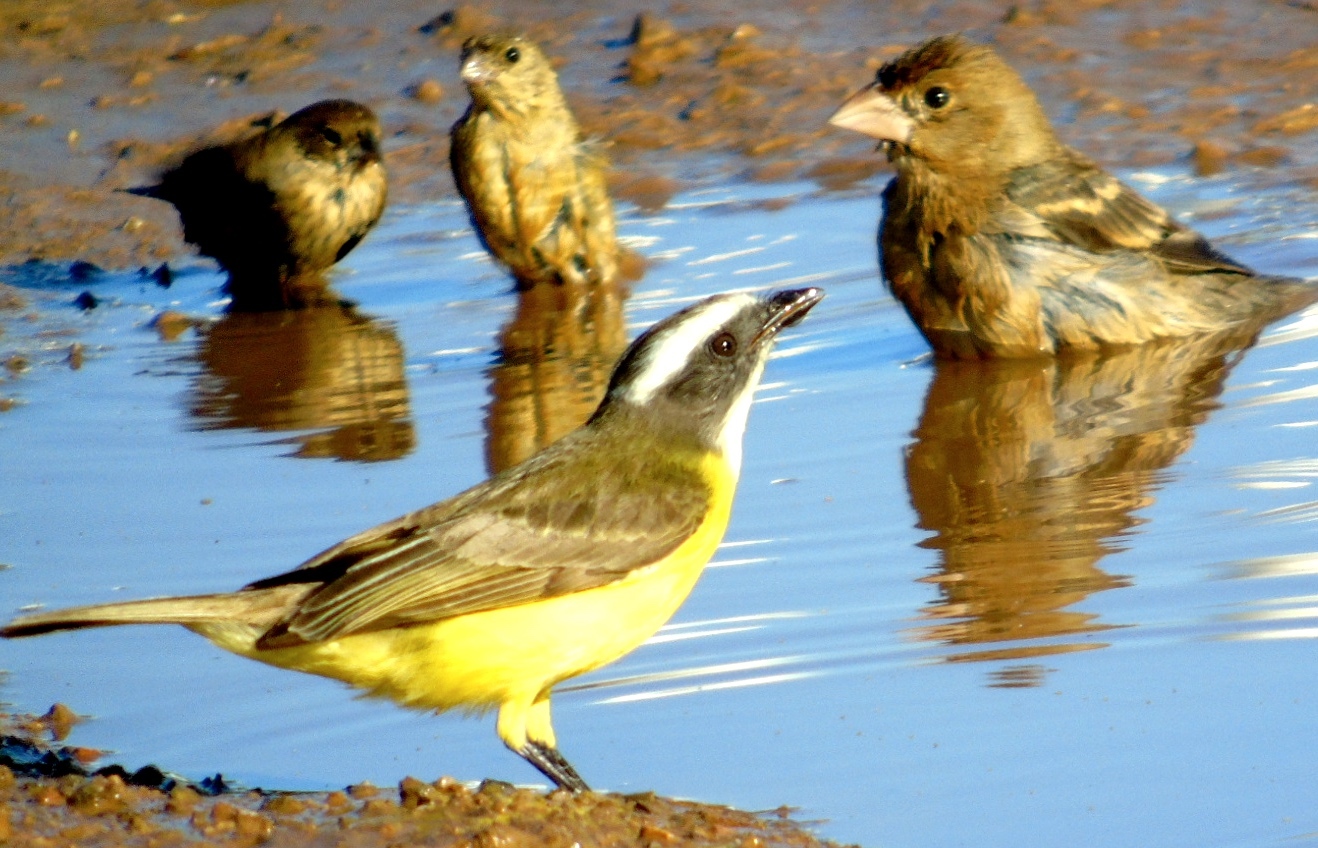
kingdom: Animalia
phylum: Chordata
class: Aves
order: Passeriformes
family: Tyrannidae
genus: Myiozetetes
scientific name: Myiozetetes similis
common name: Social flycatcher
